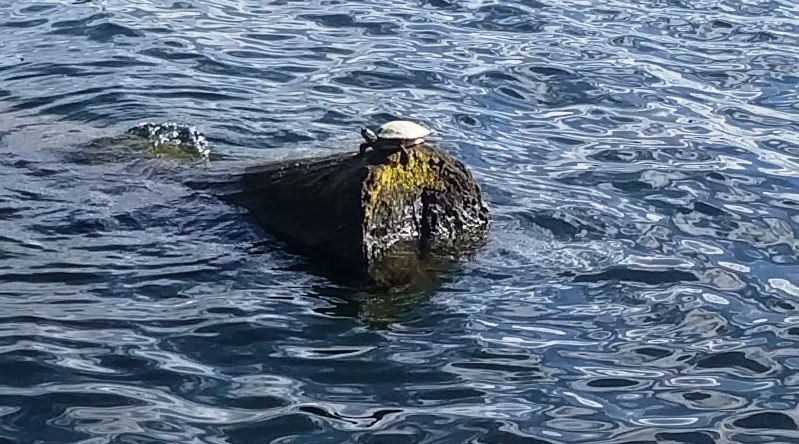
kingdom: Animalia
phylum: Chordata
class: Testudines
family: Emydidae
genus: Trachemys
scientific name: Trachemys scripta
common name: Slider
